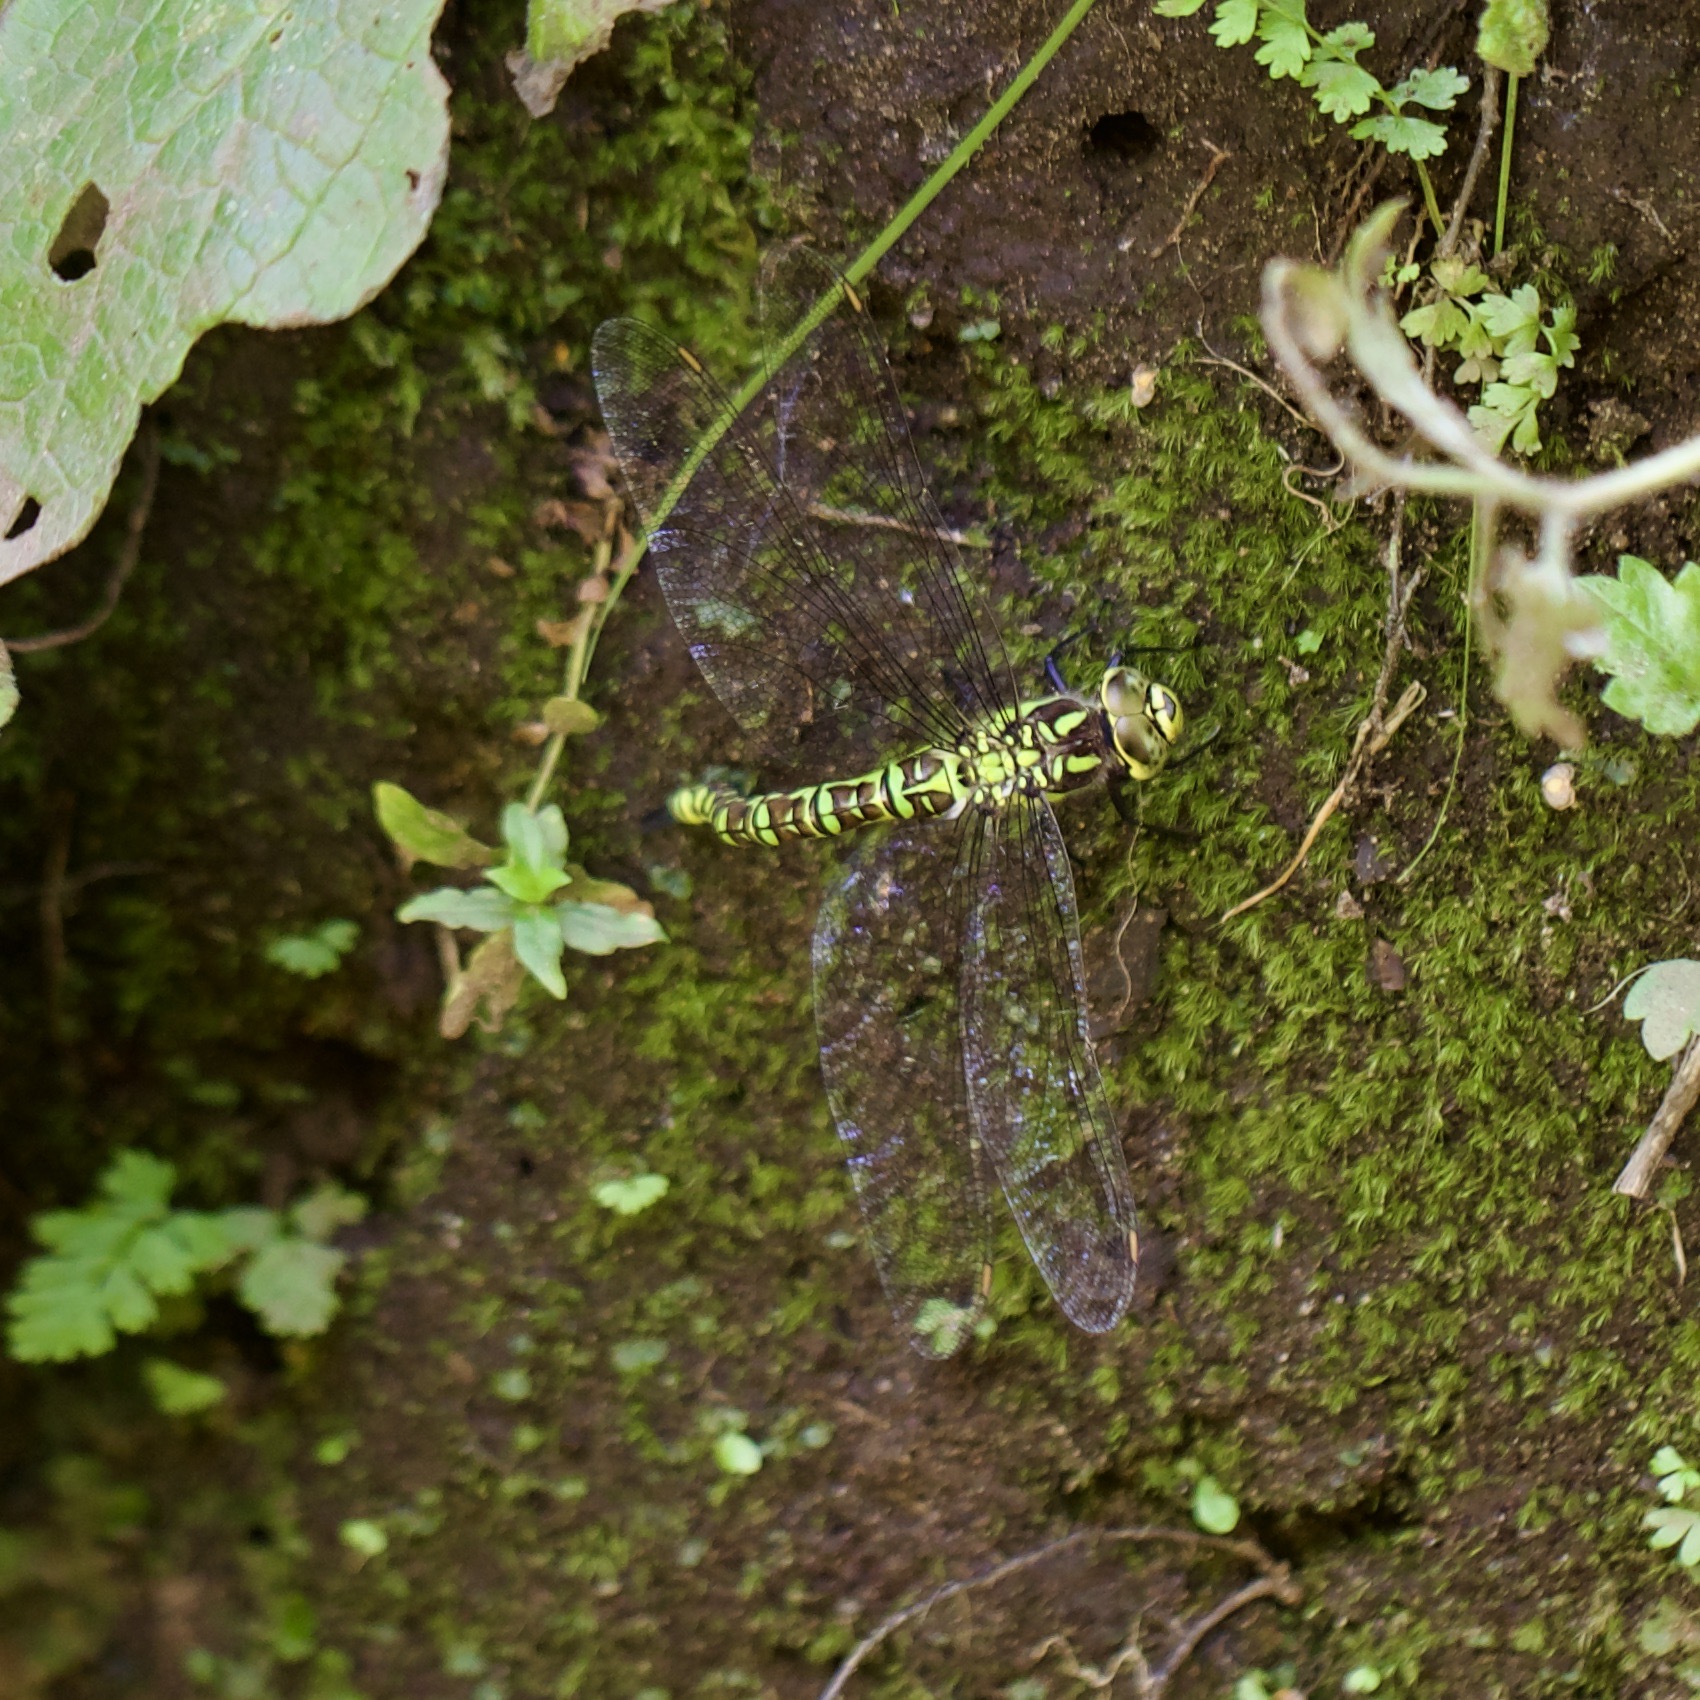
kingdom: Animalia
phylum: Arthropoda
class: Insecta
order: Odonata
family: Aeshnidae
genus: Aeshna
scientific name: Aeshna cyanea
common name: Southern hawker
